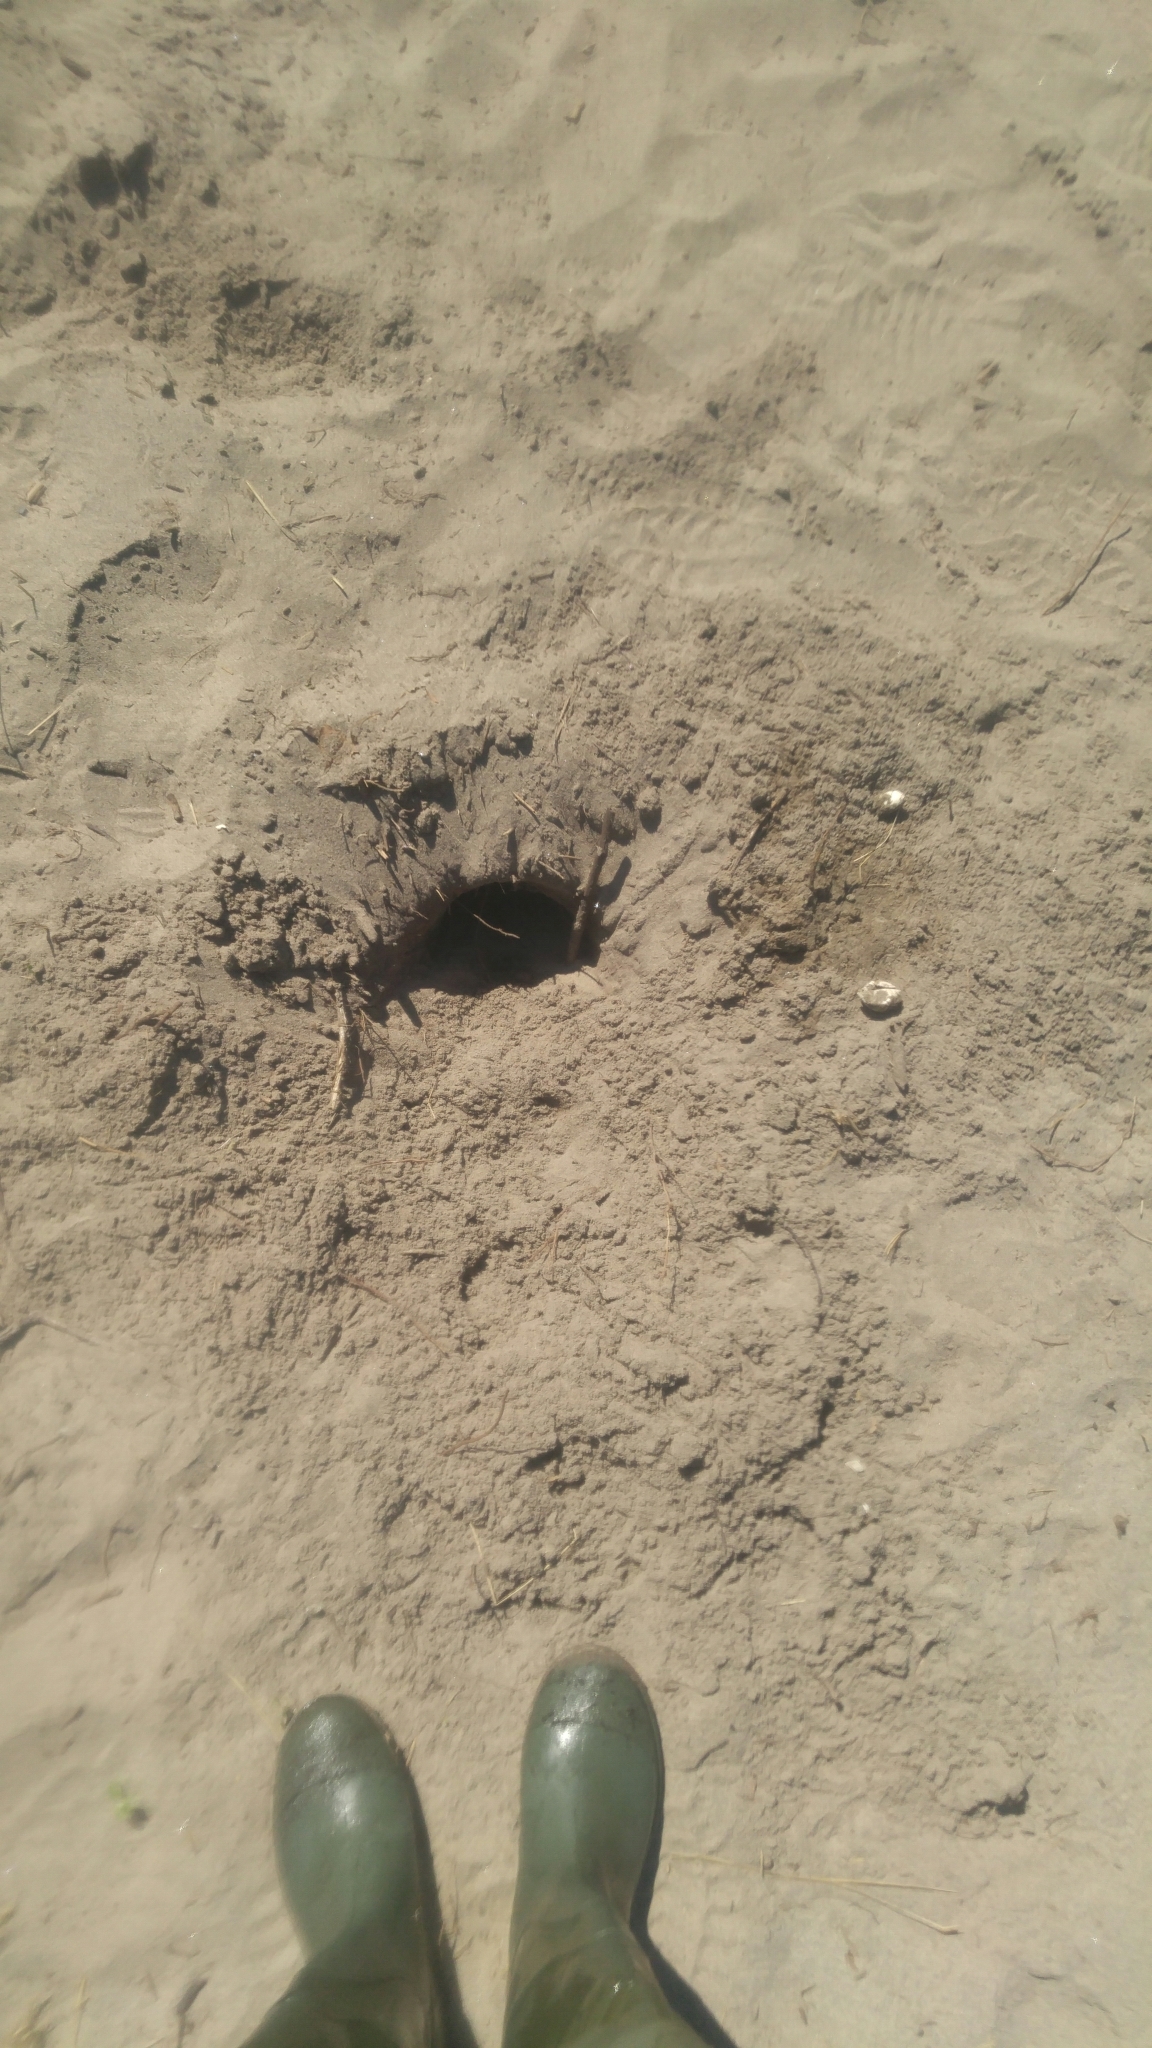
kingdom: Animalia
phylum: Chordata
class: Testudines
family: Chelydridae
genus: Chelydra
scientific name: Chelydra serpentina
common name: Common snapping turtle
